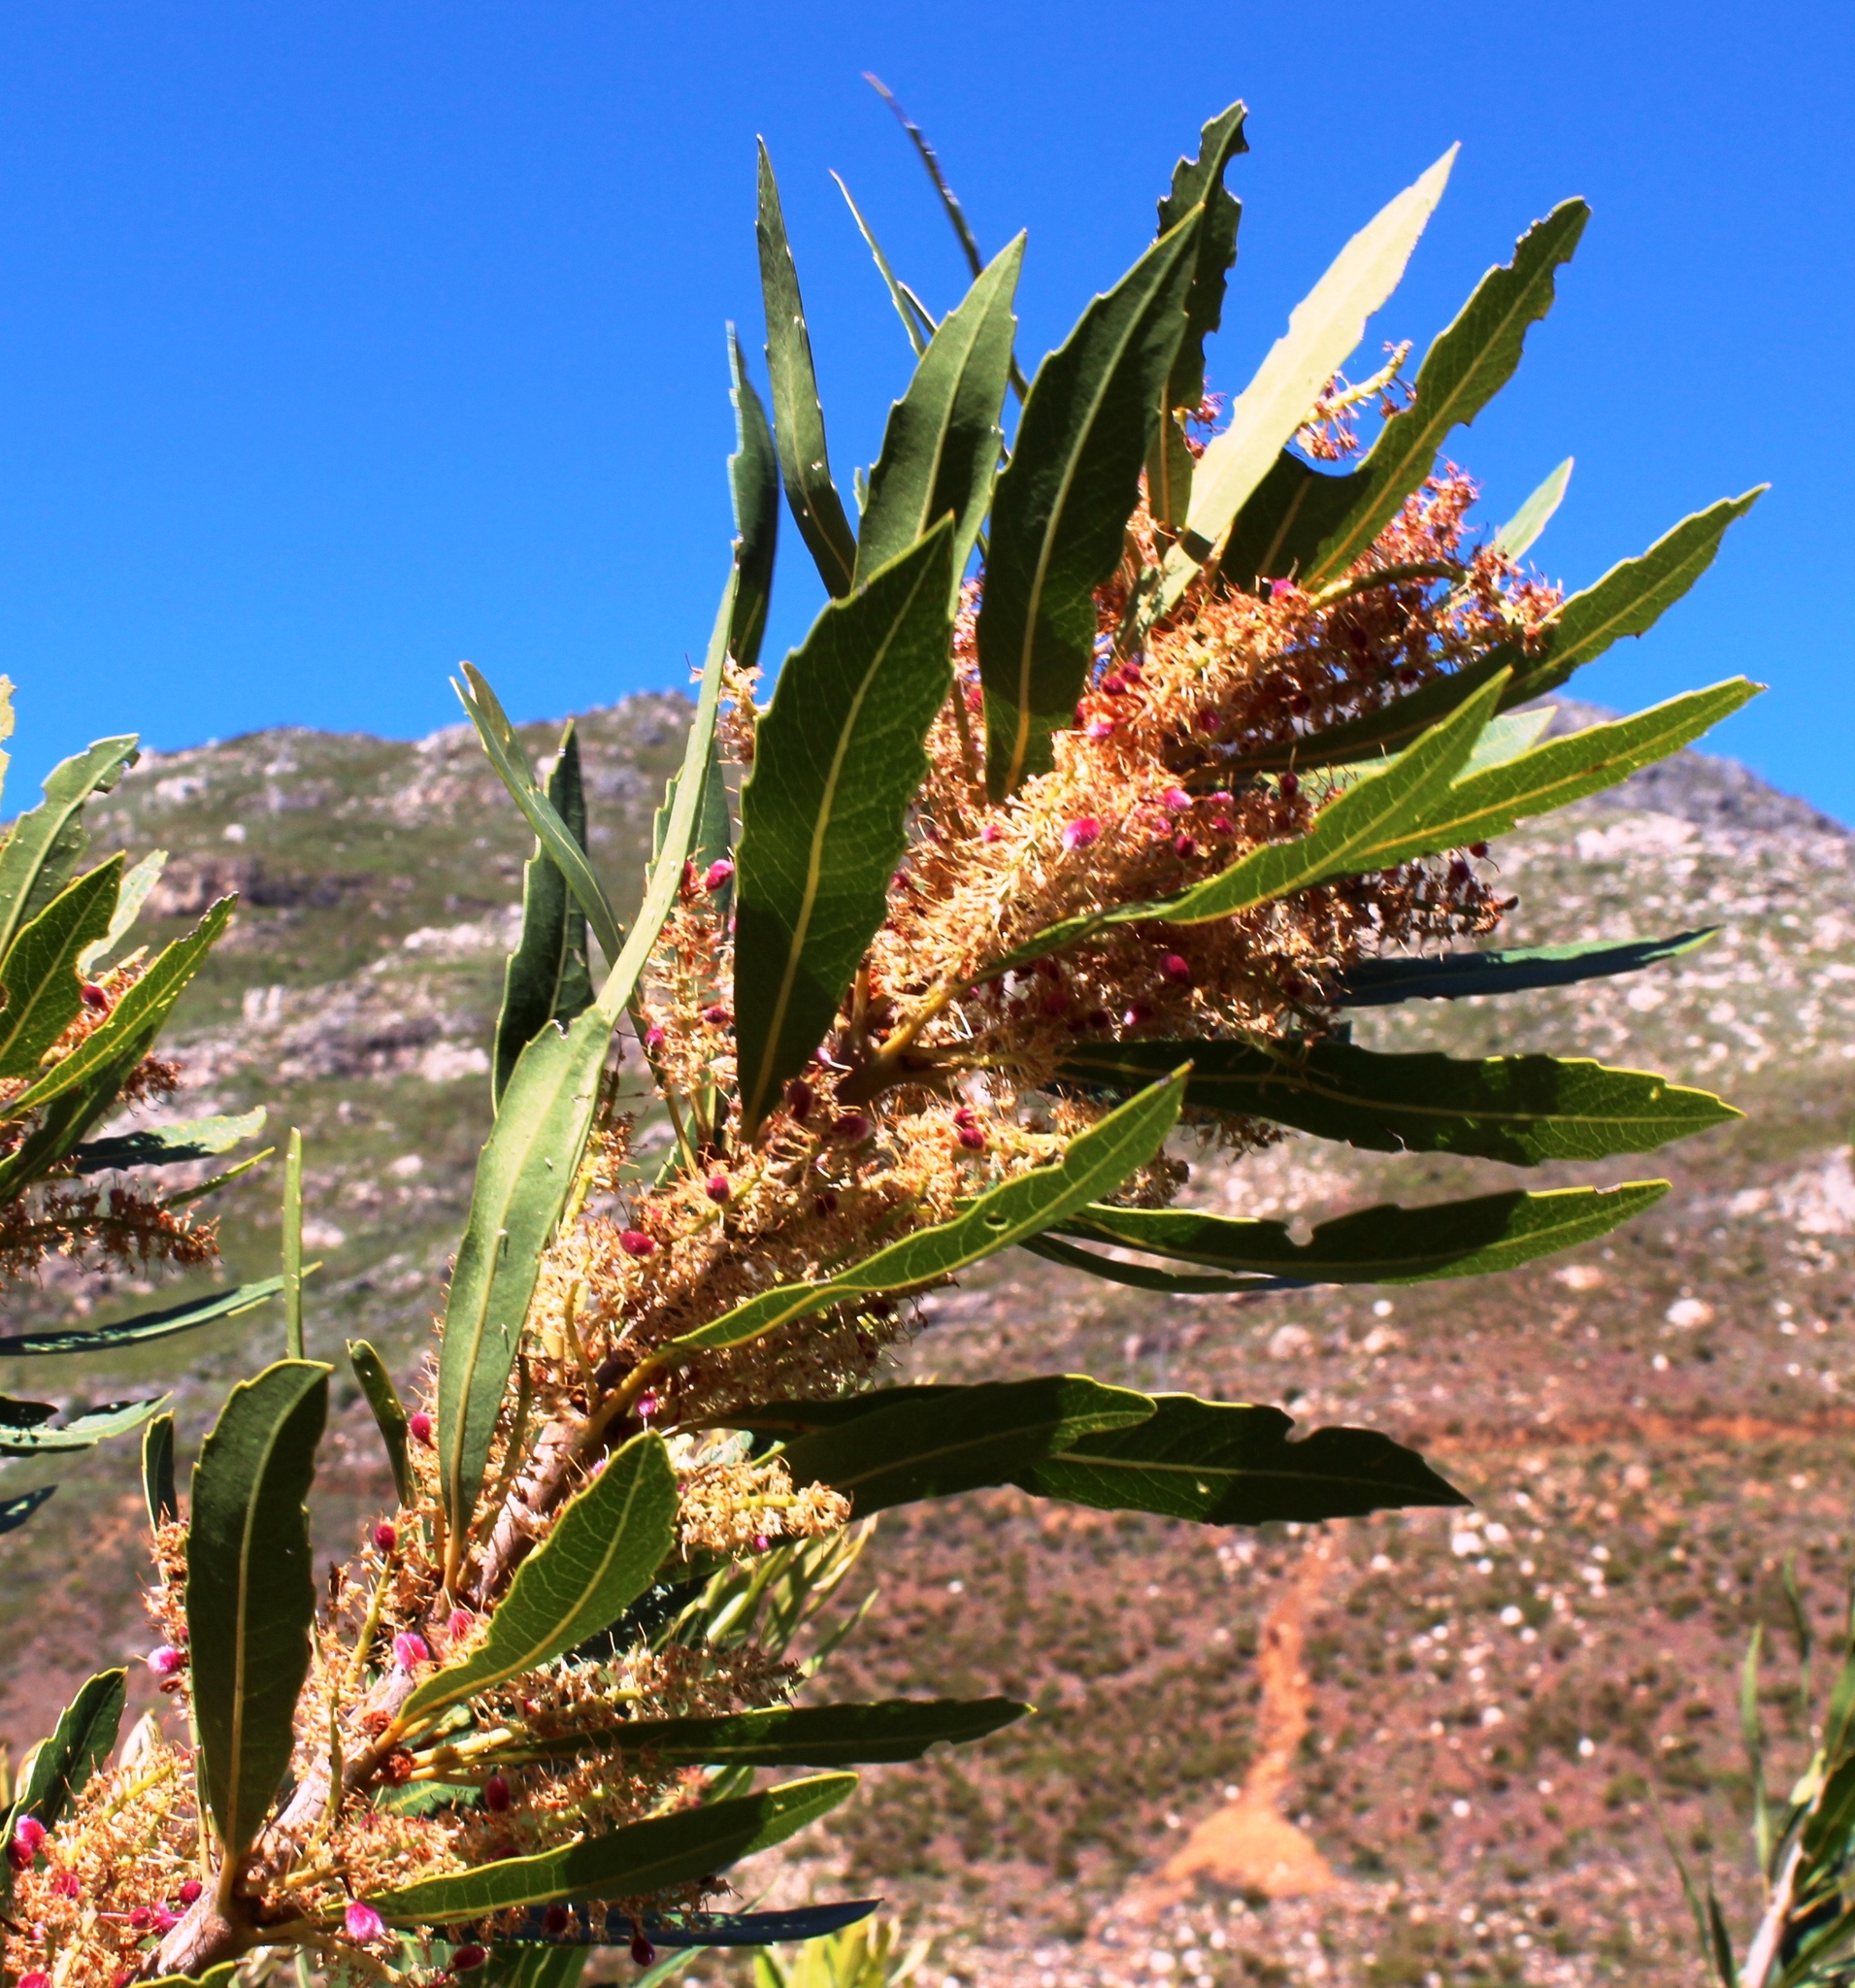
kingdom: Plantae
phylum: Tracheophyta
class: Magnoliopsida
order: Proteales
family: Proteaceae
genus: Brabejum
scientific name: Brabejum stellatifolium
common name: Wild almond
